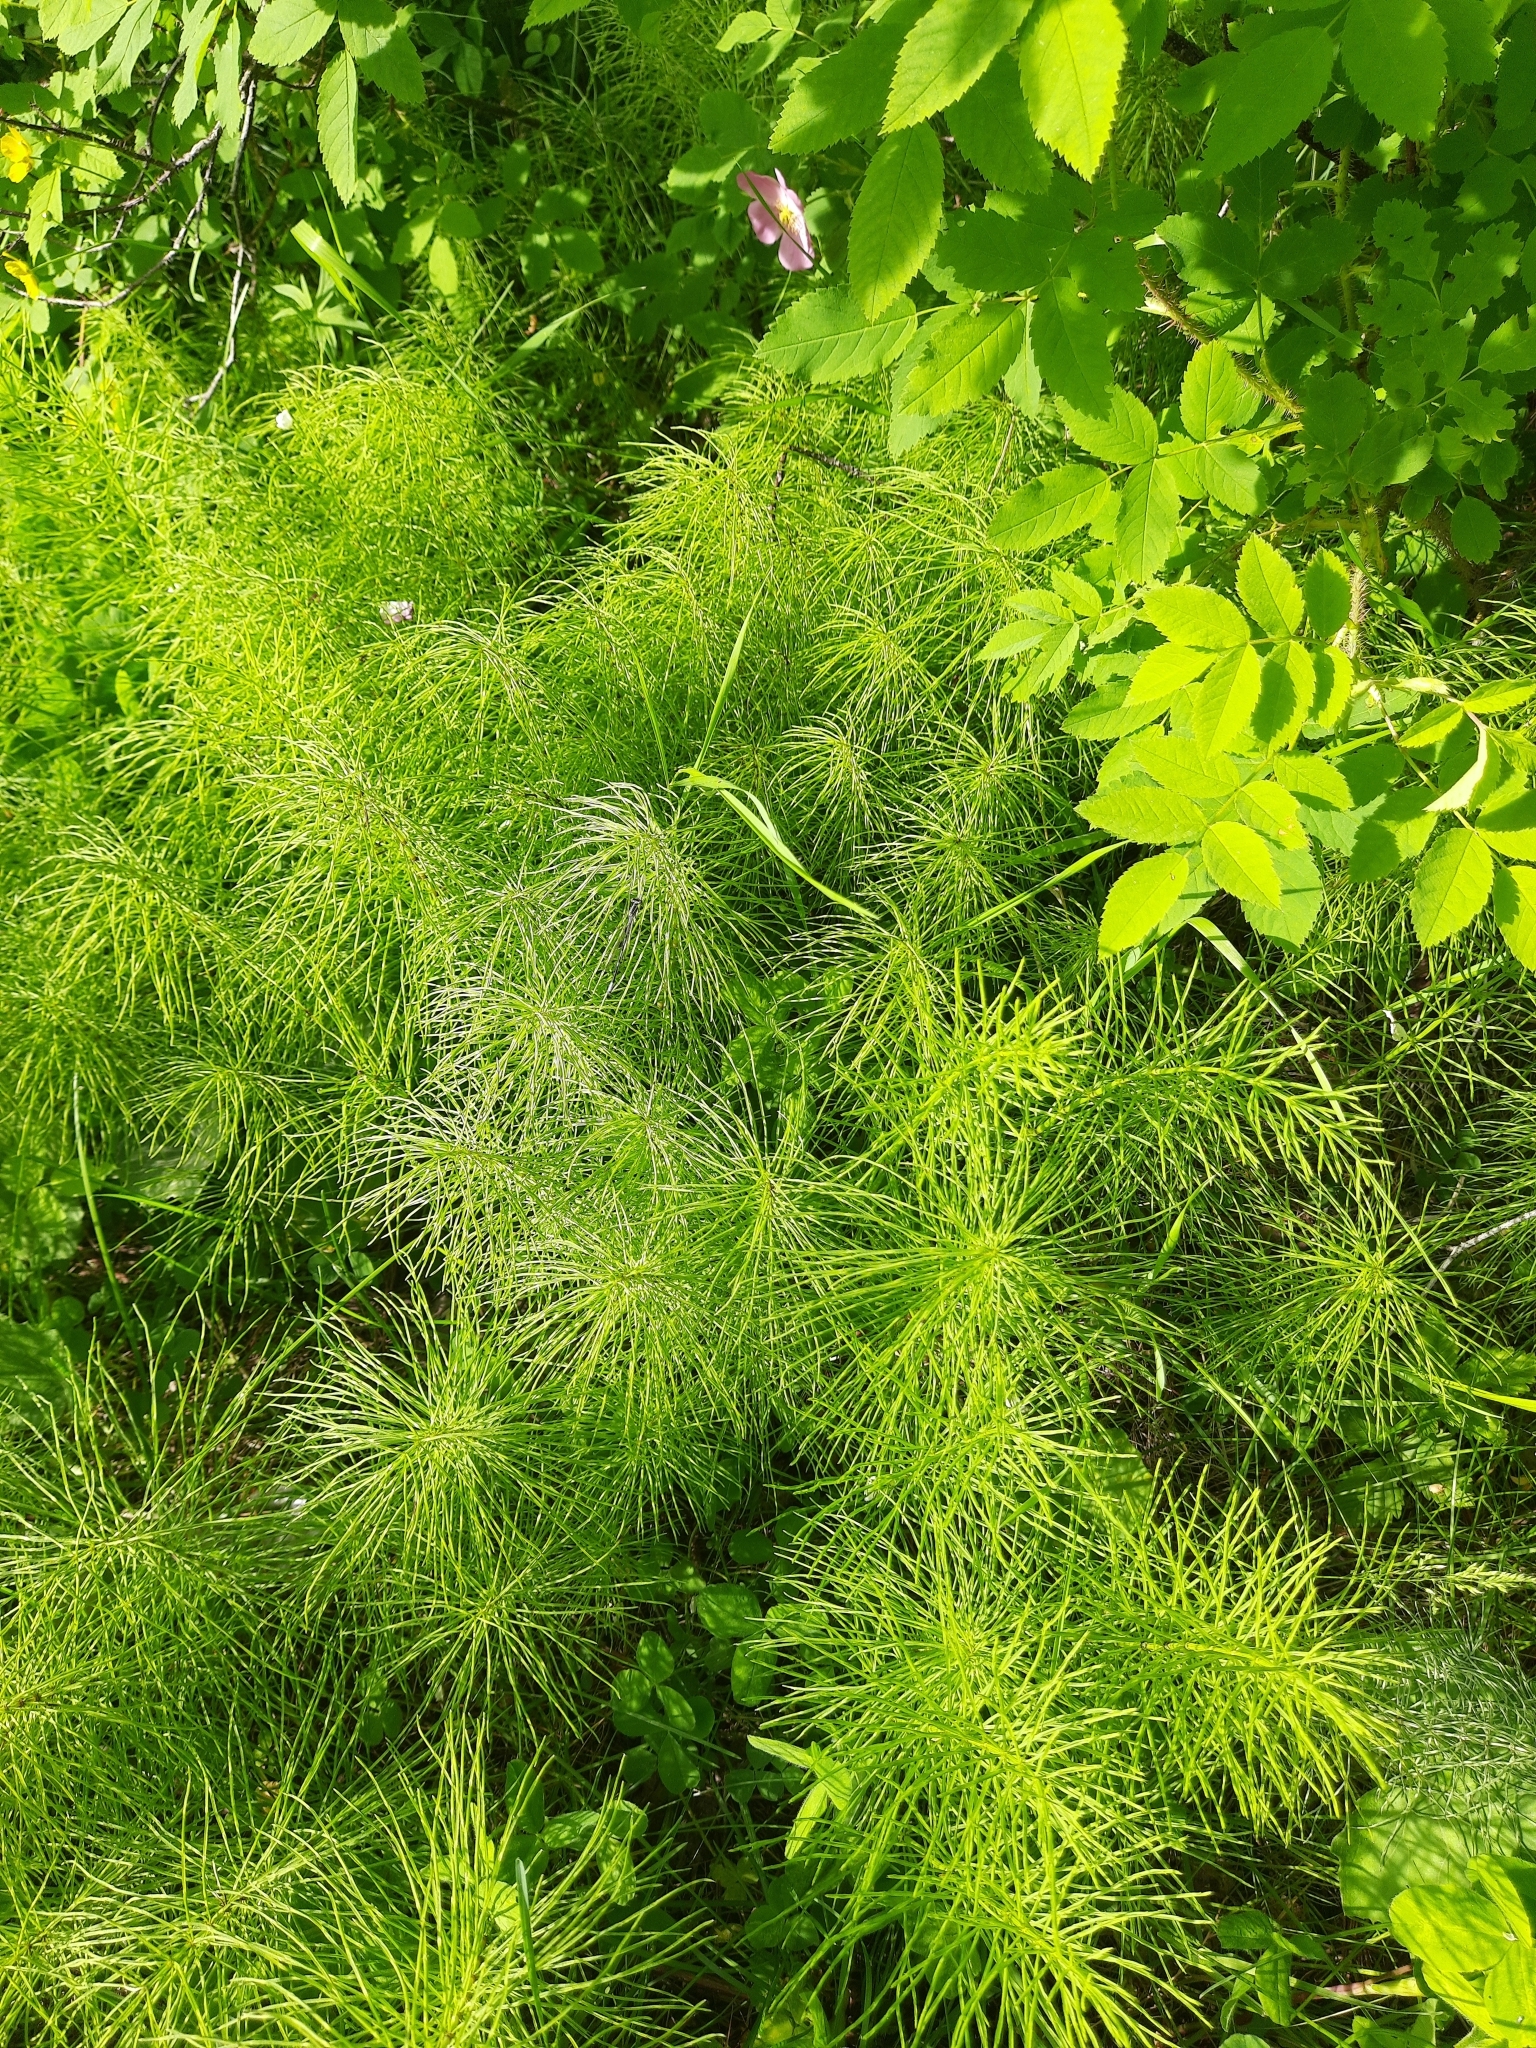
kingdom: Plantae
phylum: Tracheophyta
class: Polypodiopsida
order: Equisetales
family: Equisetaceae
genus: Equisetum
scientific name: Equisetum pratense
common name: Meadow horsetail
